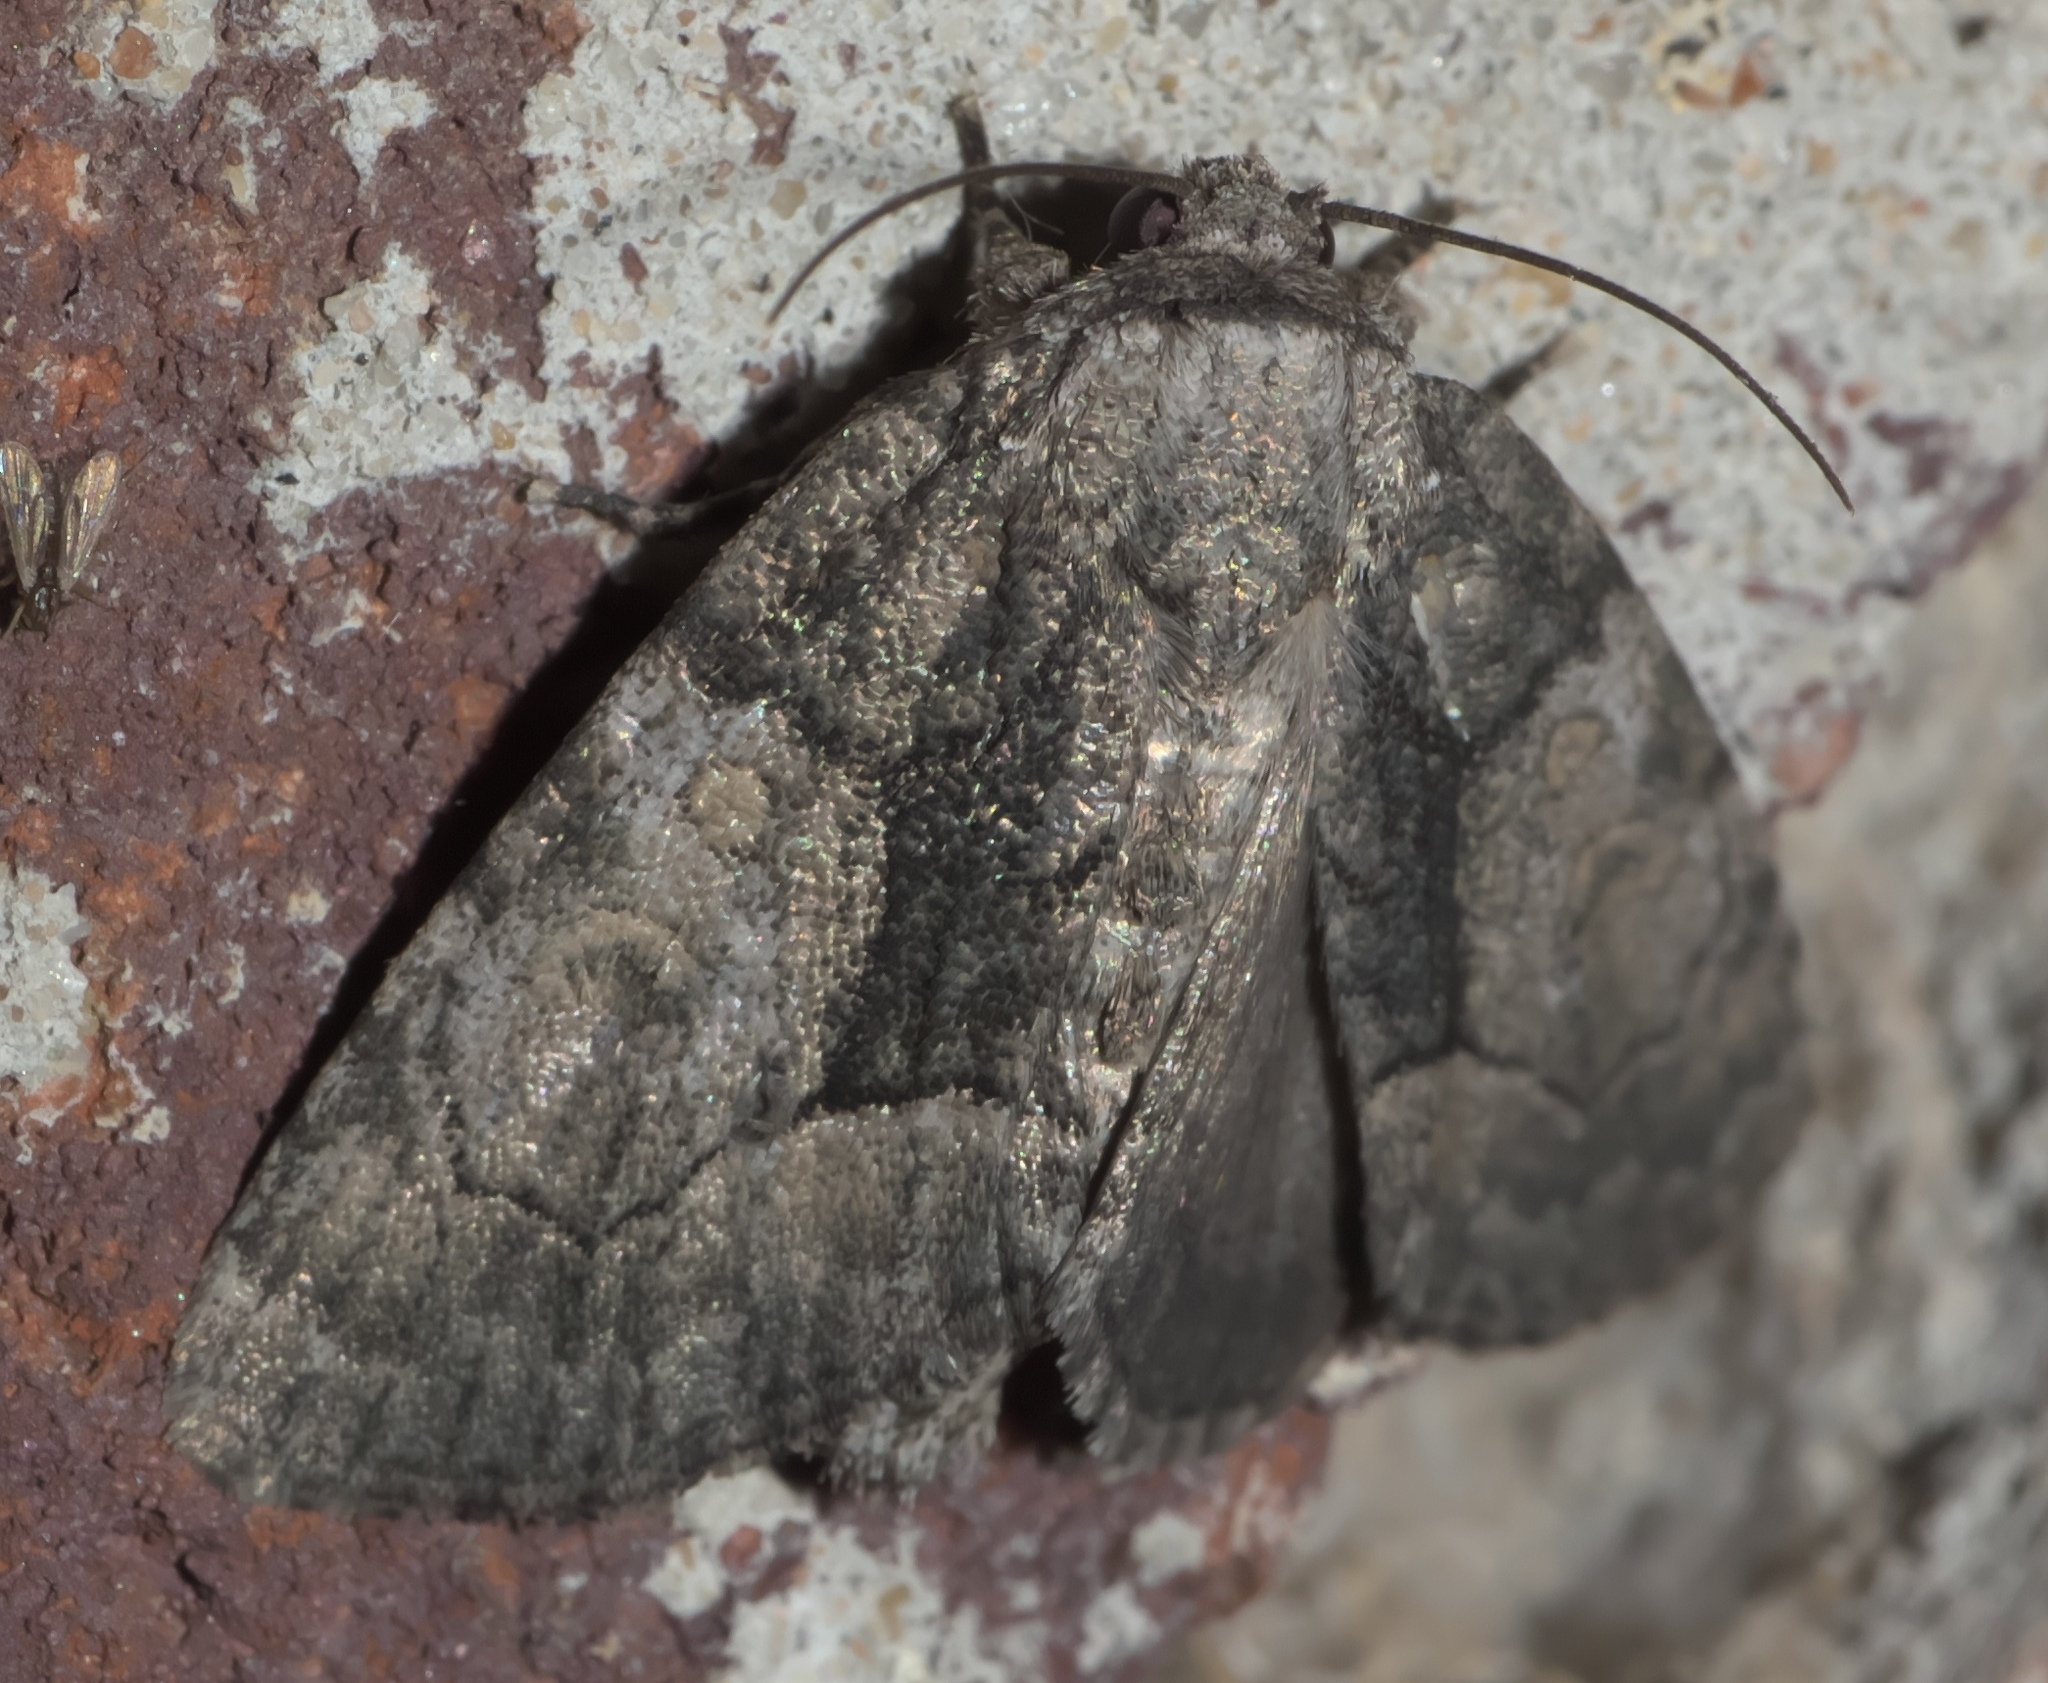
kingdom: Animalia
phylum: Arthropoda
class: Insecta
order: Lepidoptera
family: Noctuidae
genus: Raphia
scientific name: Raphia frater
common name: Brother
